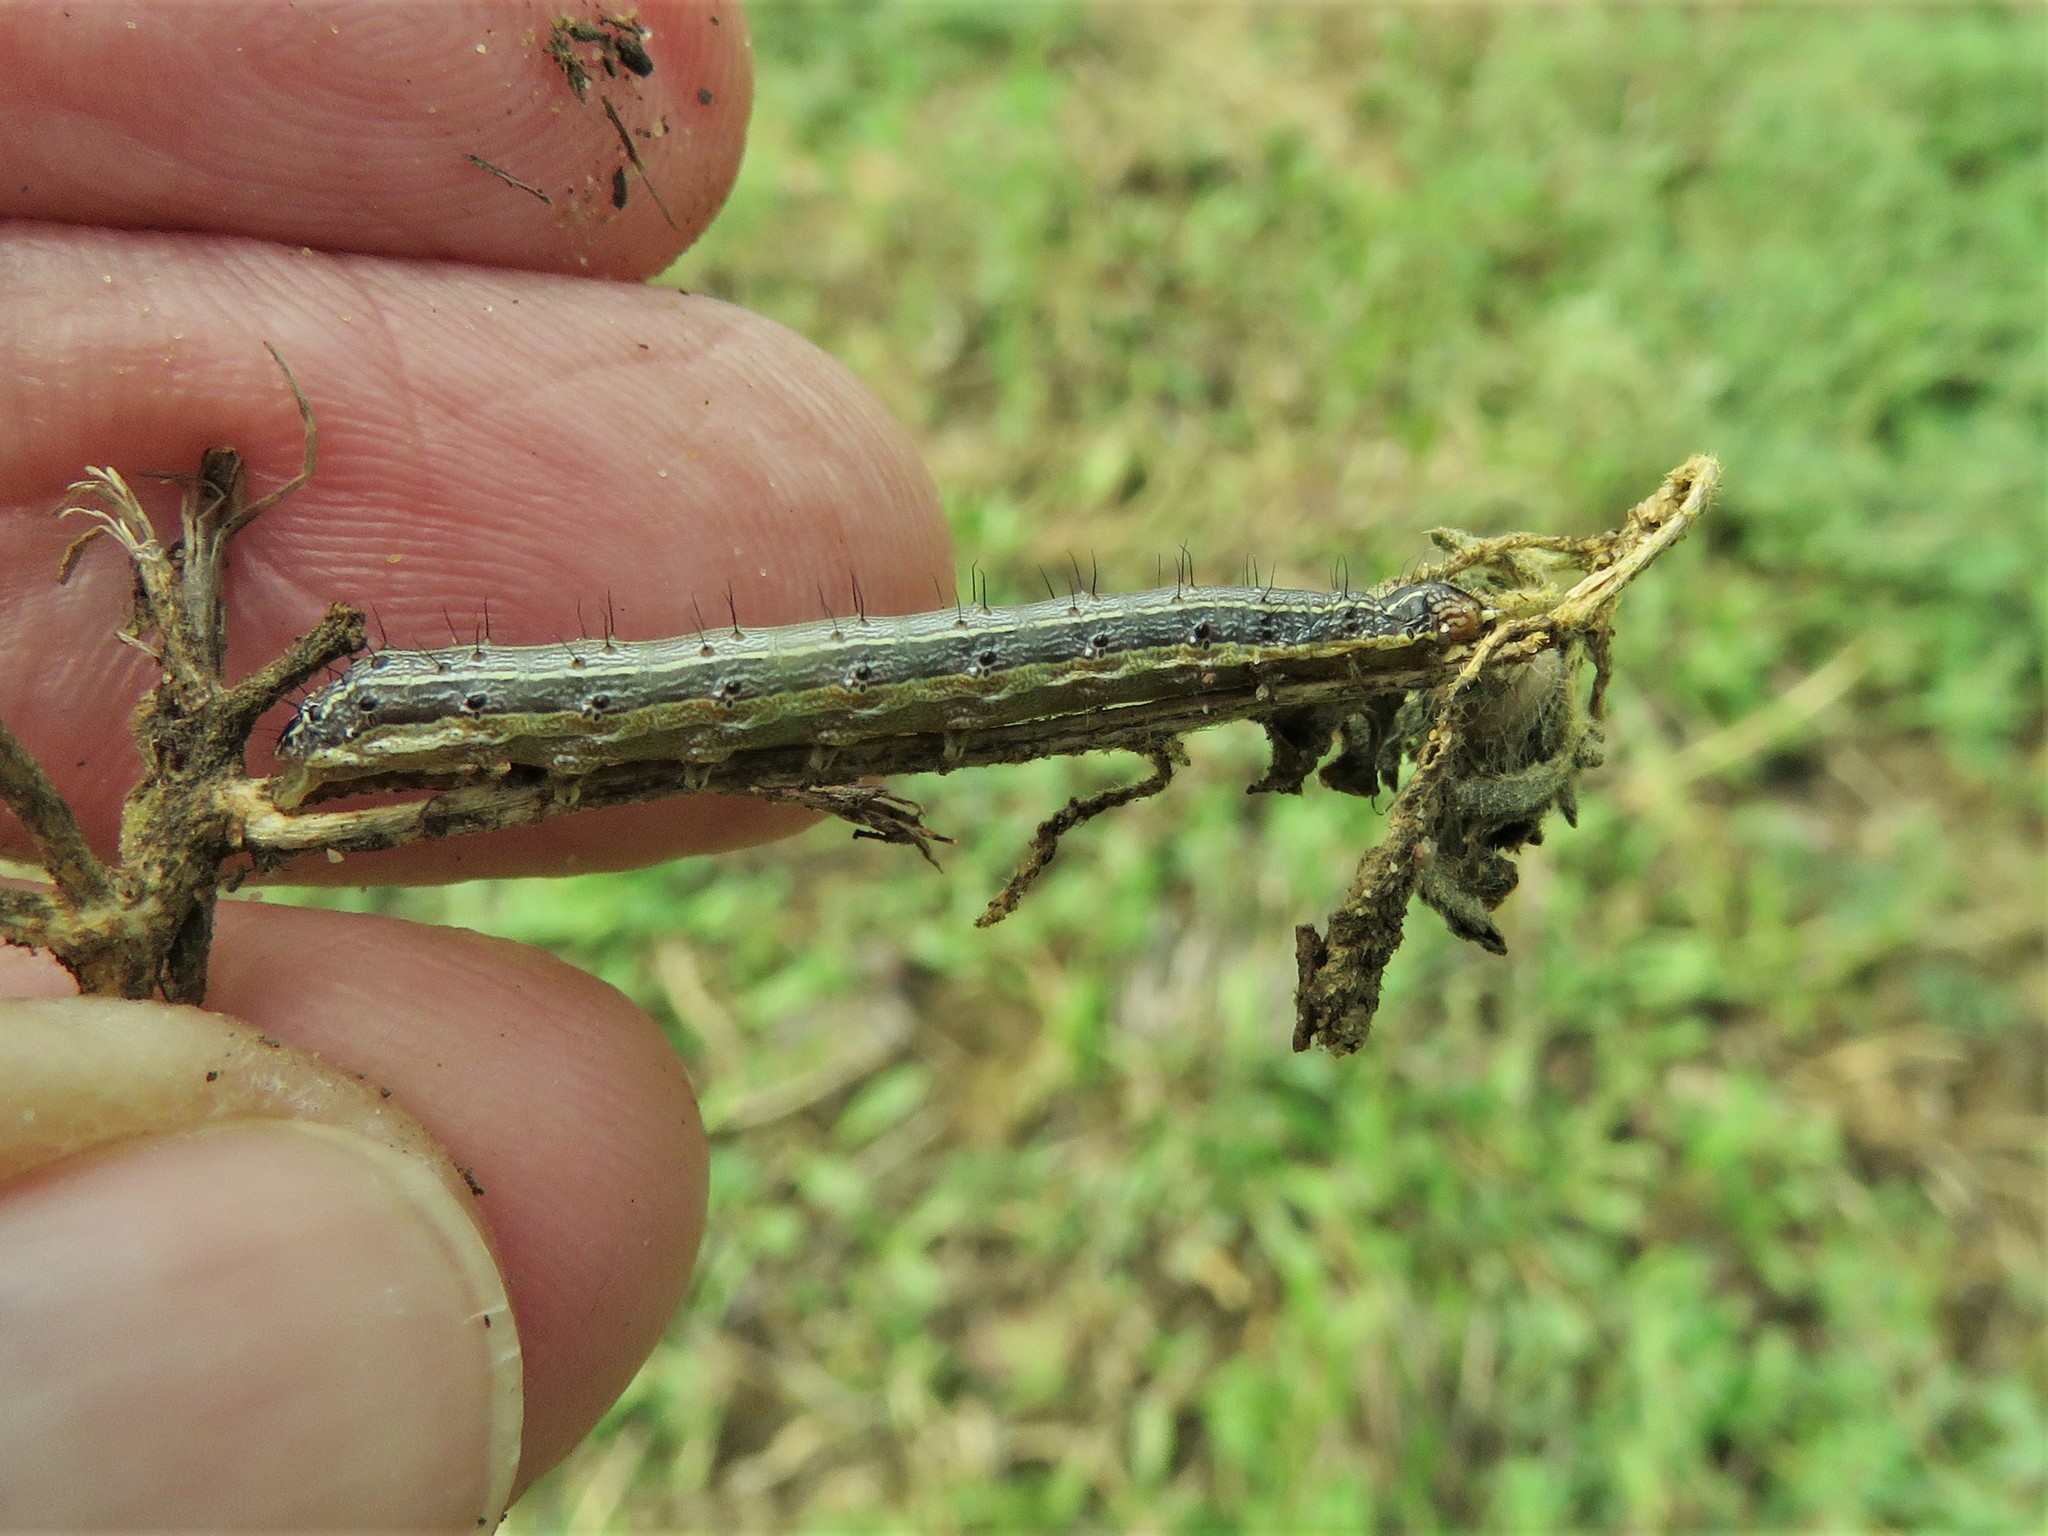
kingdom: Animalia
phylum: Arthropoda
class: Insecta
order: Lepidoptera
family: Noctuidae
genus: Spodoptera
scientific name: Spodoptera frugiperda
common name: Fall armyworm
